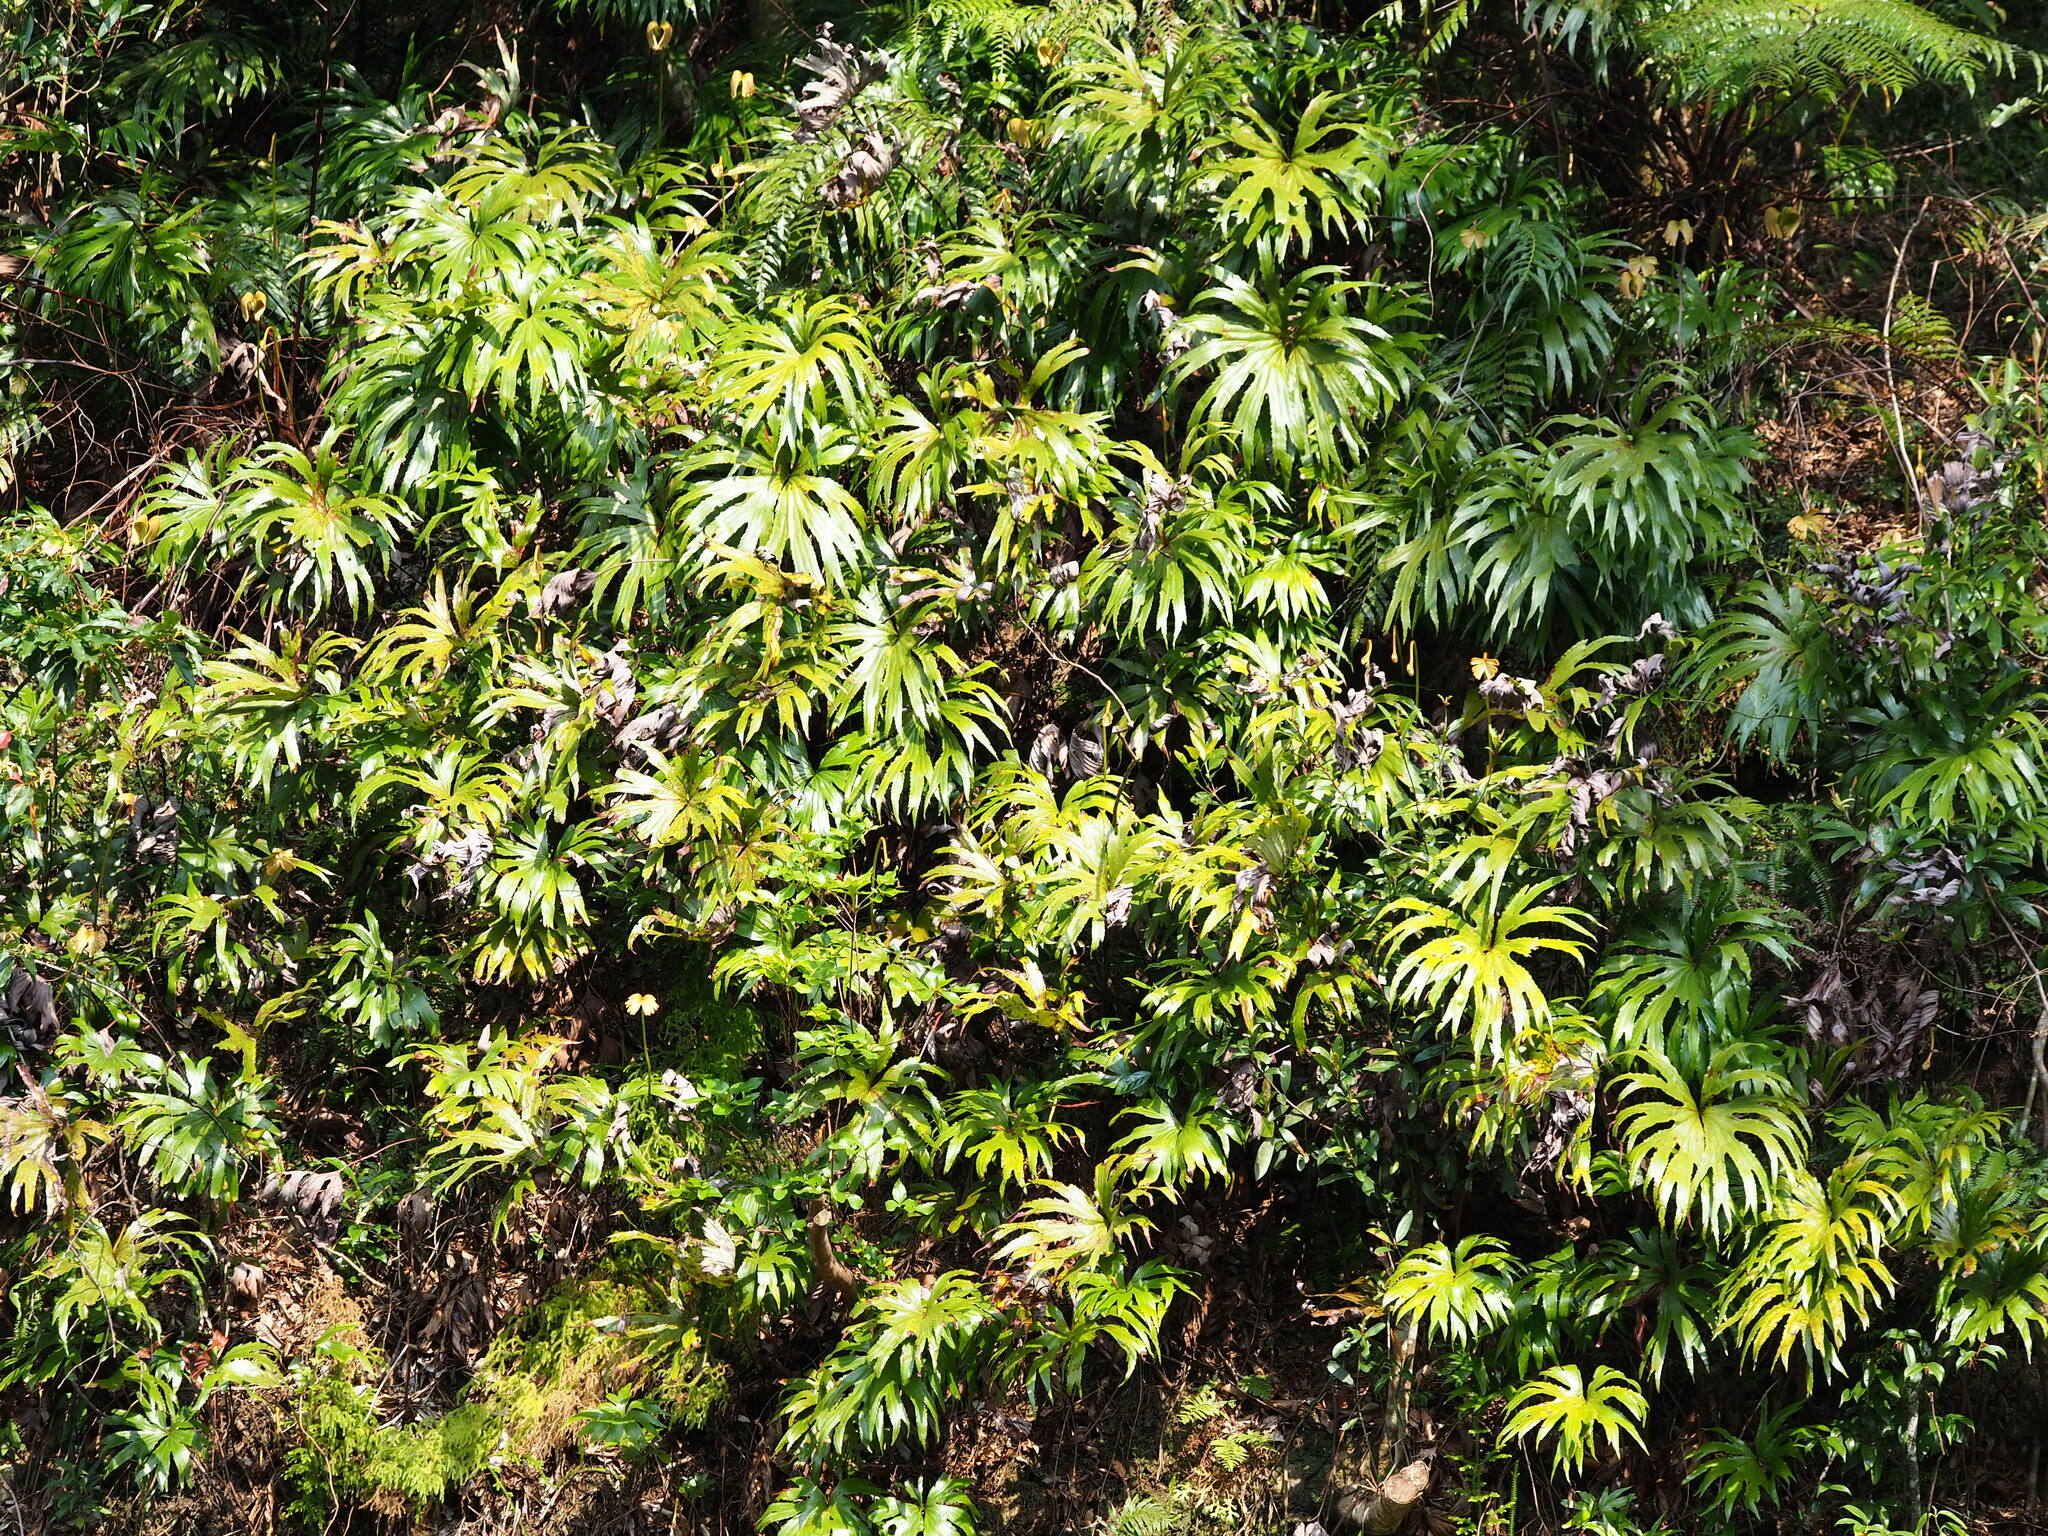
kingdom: Plantae
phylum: Tracheophyta
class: Polypodiopsida
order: Gleicheniales
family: Dipteridaceae
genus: Dipteris
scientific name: Dipteris conjugata
